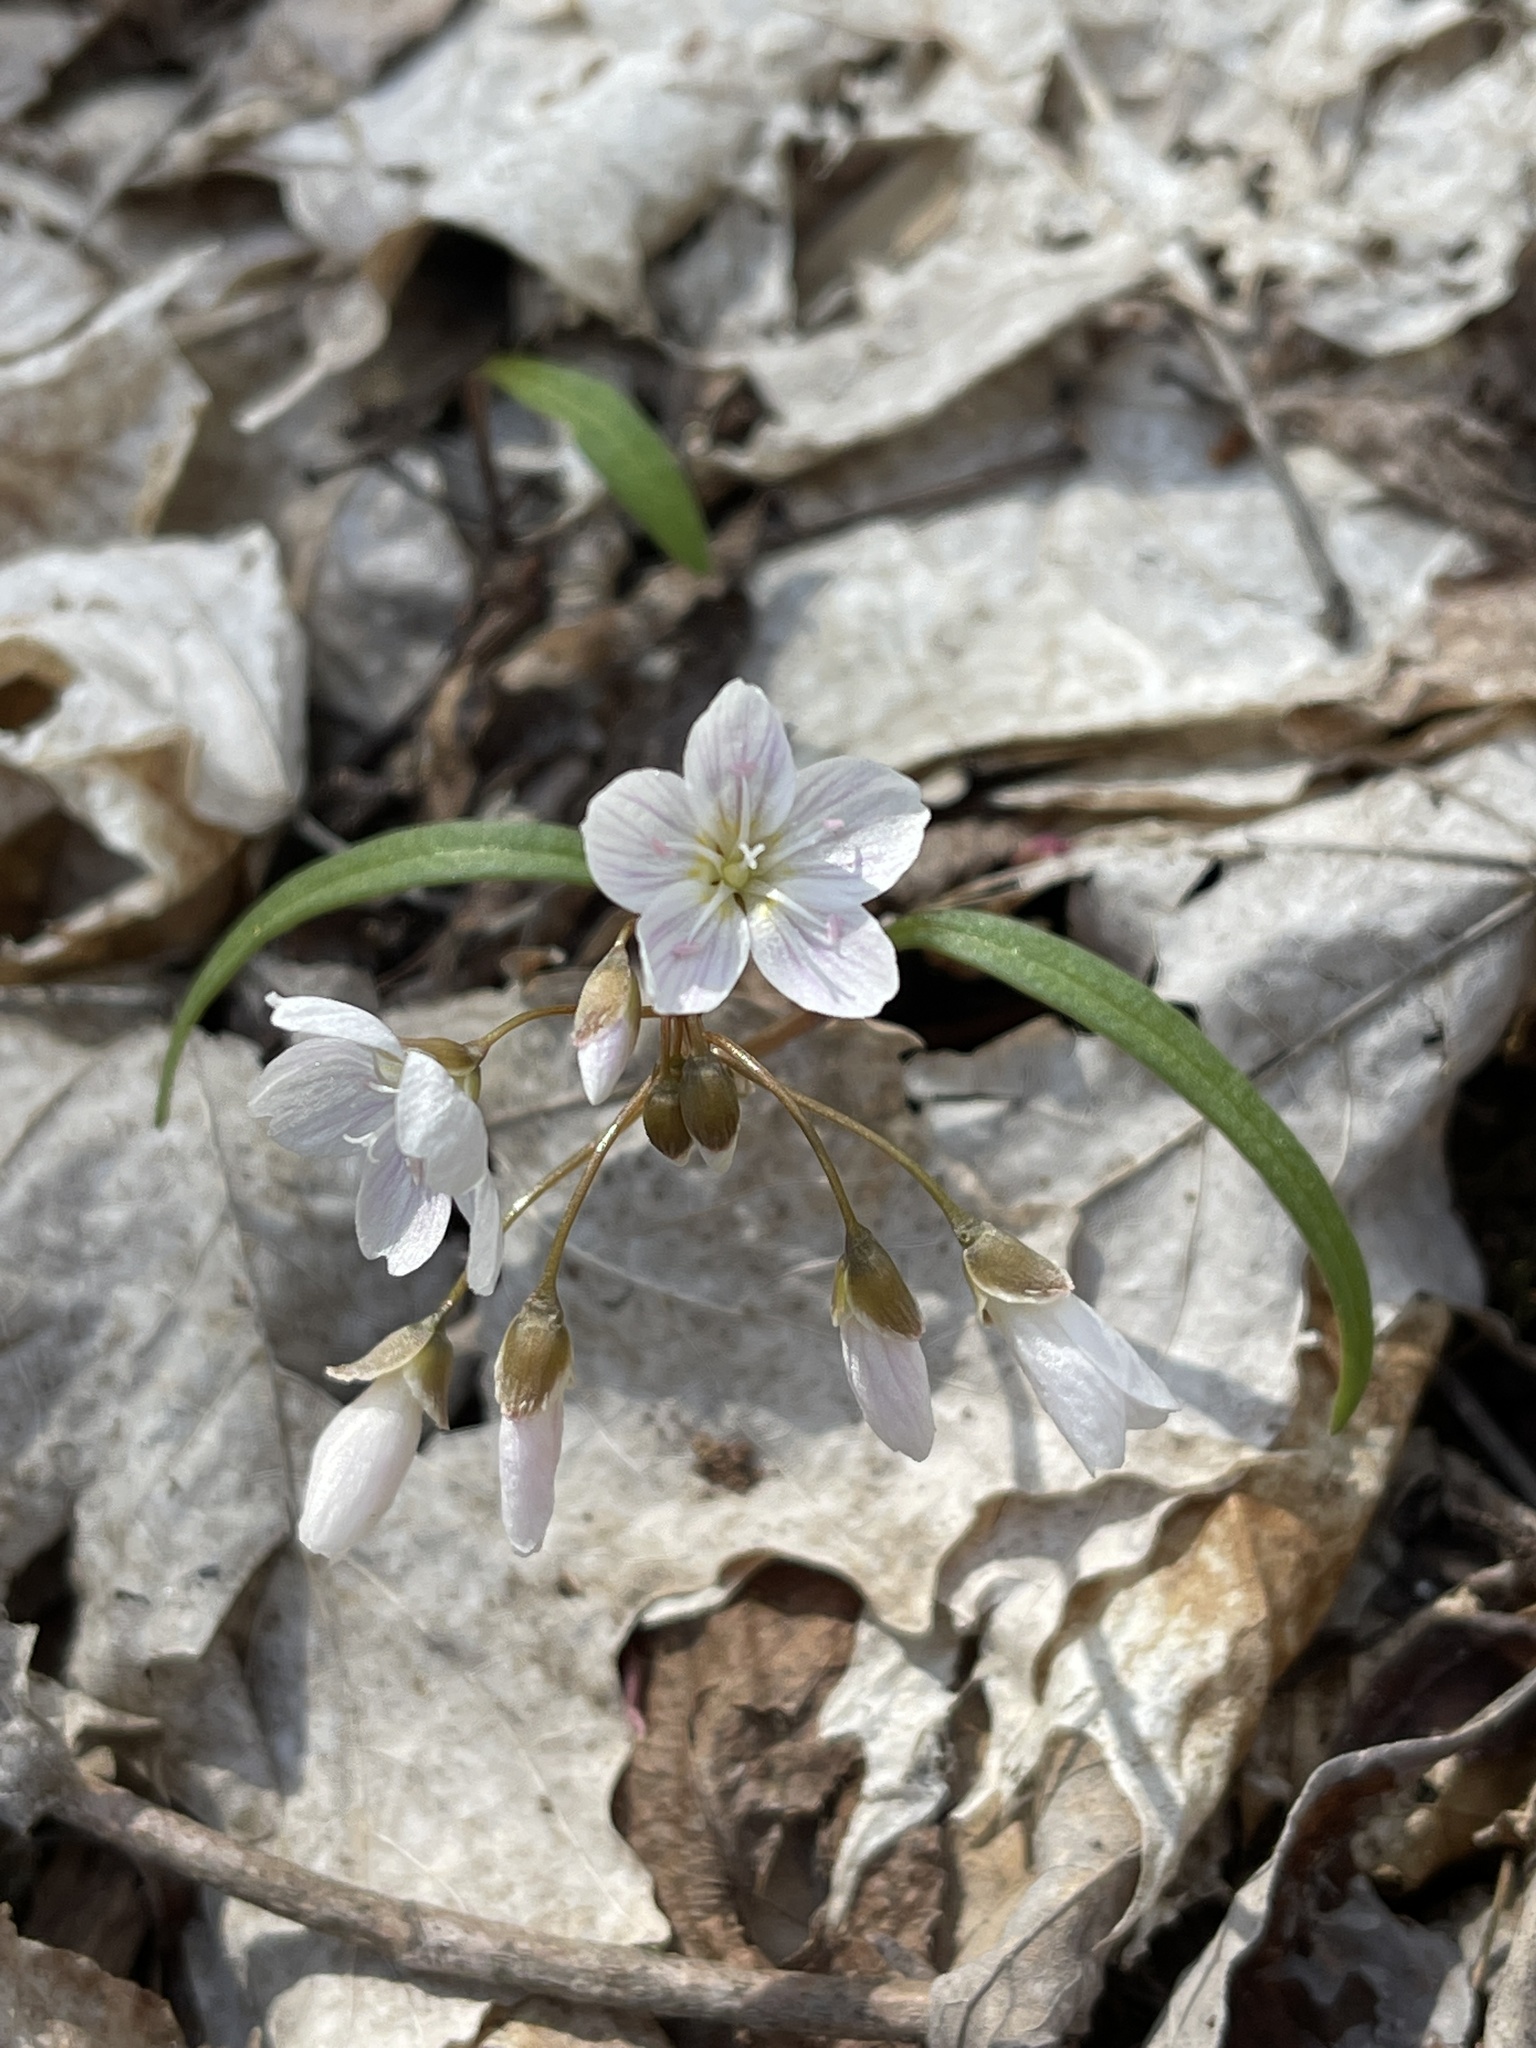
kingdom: Plantae
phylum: Tracheophyta
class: Magnoliopsida
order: Caryophyllales
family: Montiaceae
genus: Claytonia
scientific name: Claytonia virginica
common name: Virginia springbeauty
